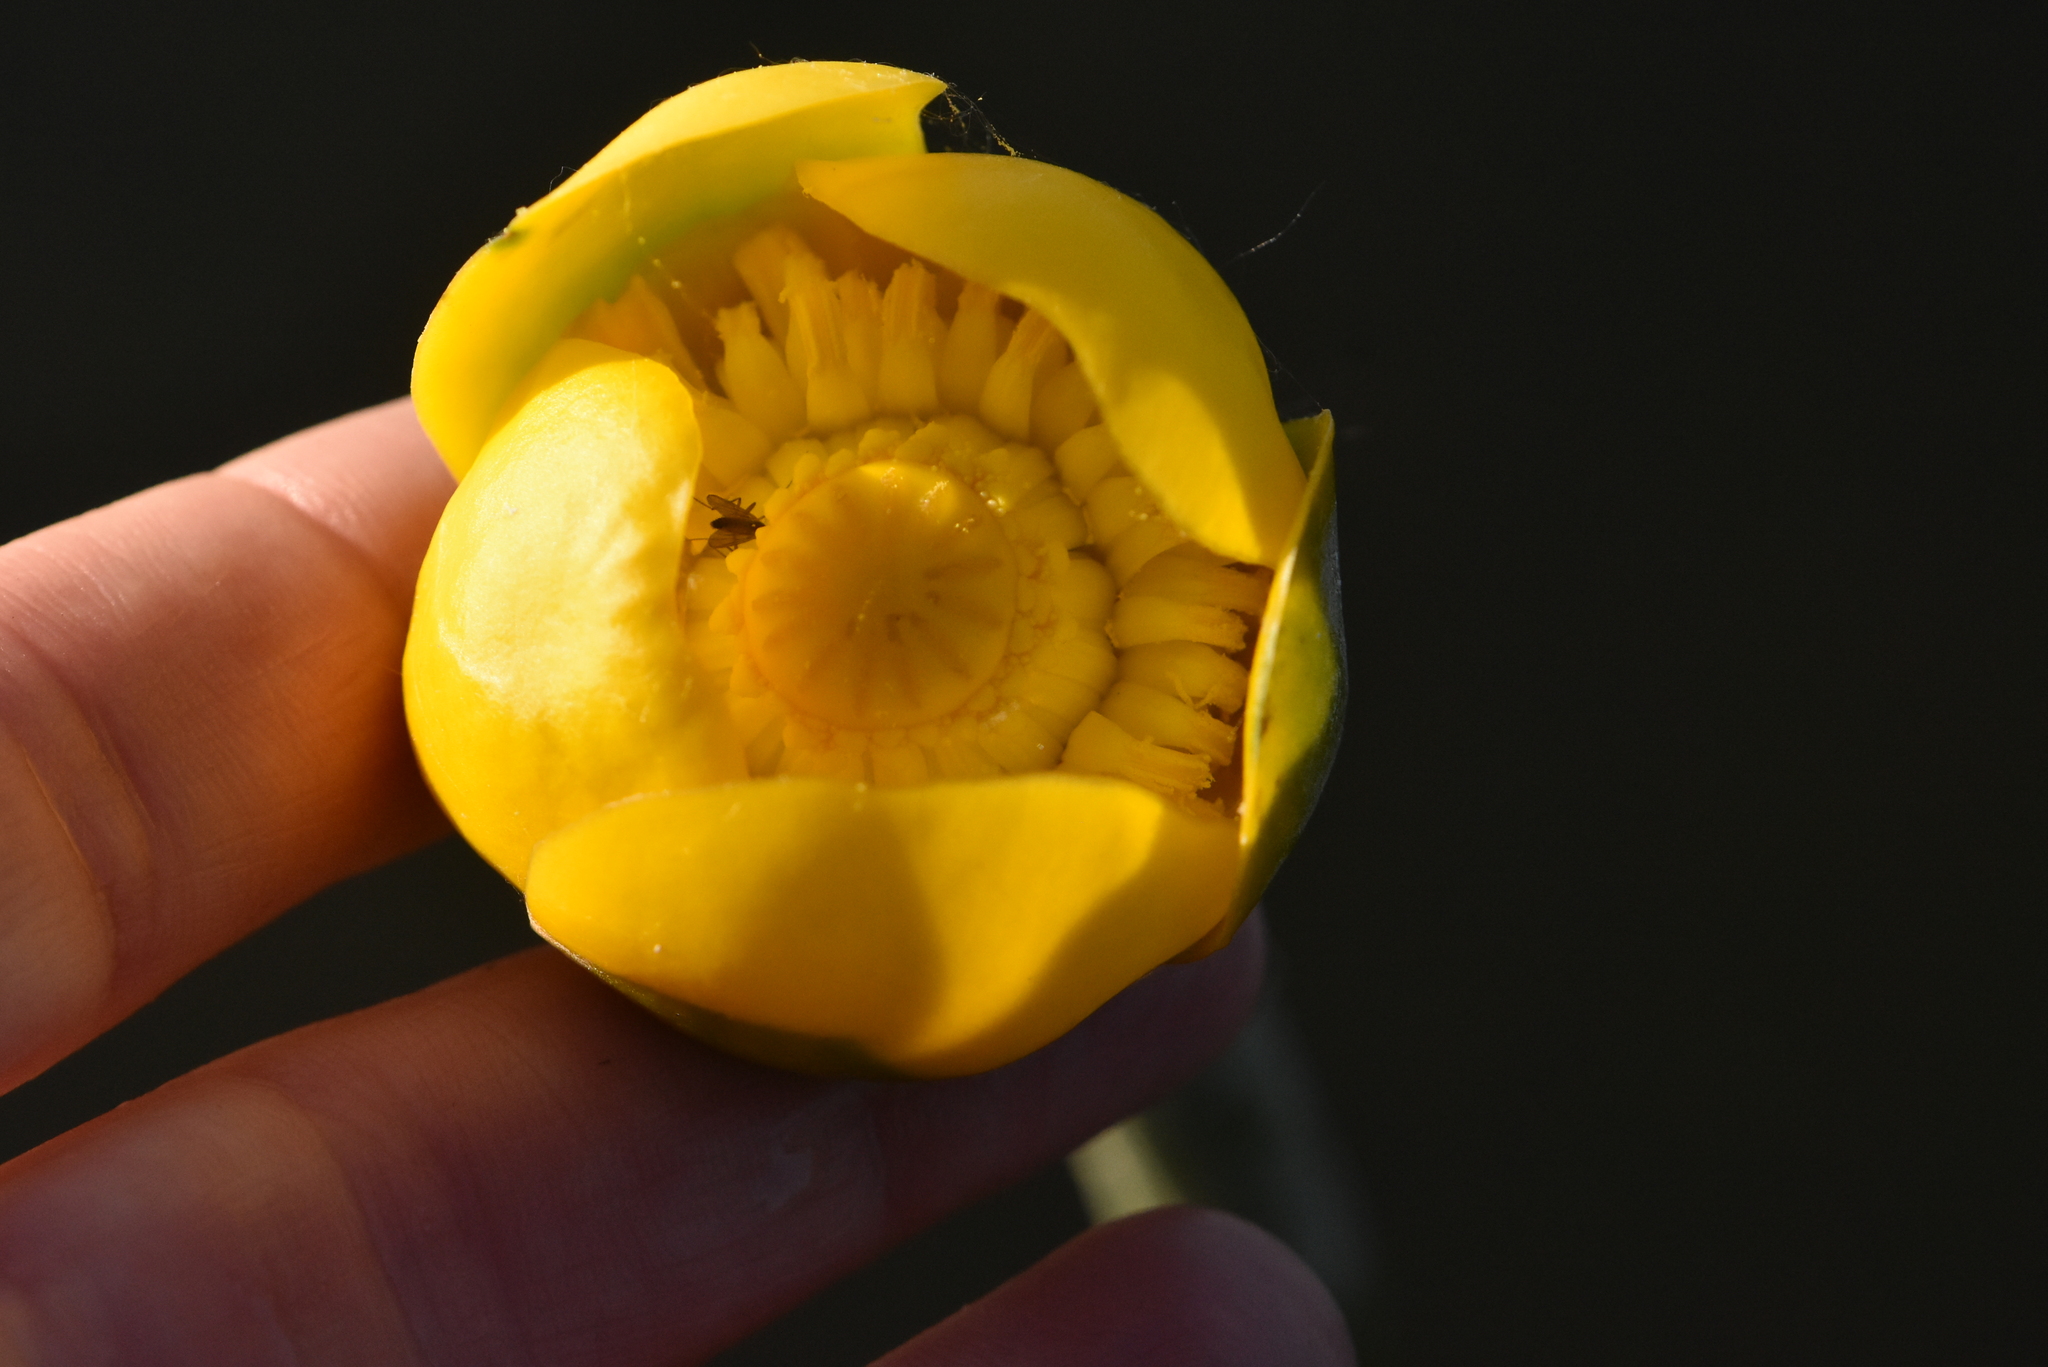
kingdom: Plantae
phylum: Tracheophyta
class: Magnoliopsida
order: Nymphaeales
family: Nymphaeaceae
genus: Nuphar
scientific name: Nuphar lutea
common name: Yellow water-lily
